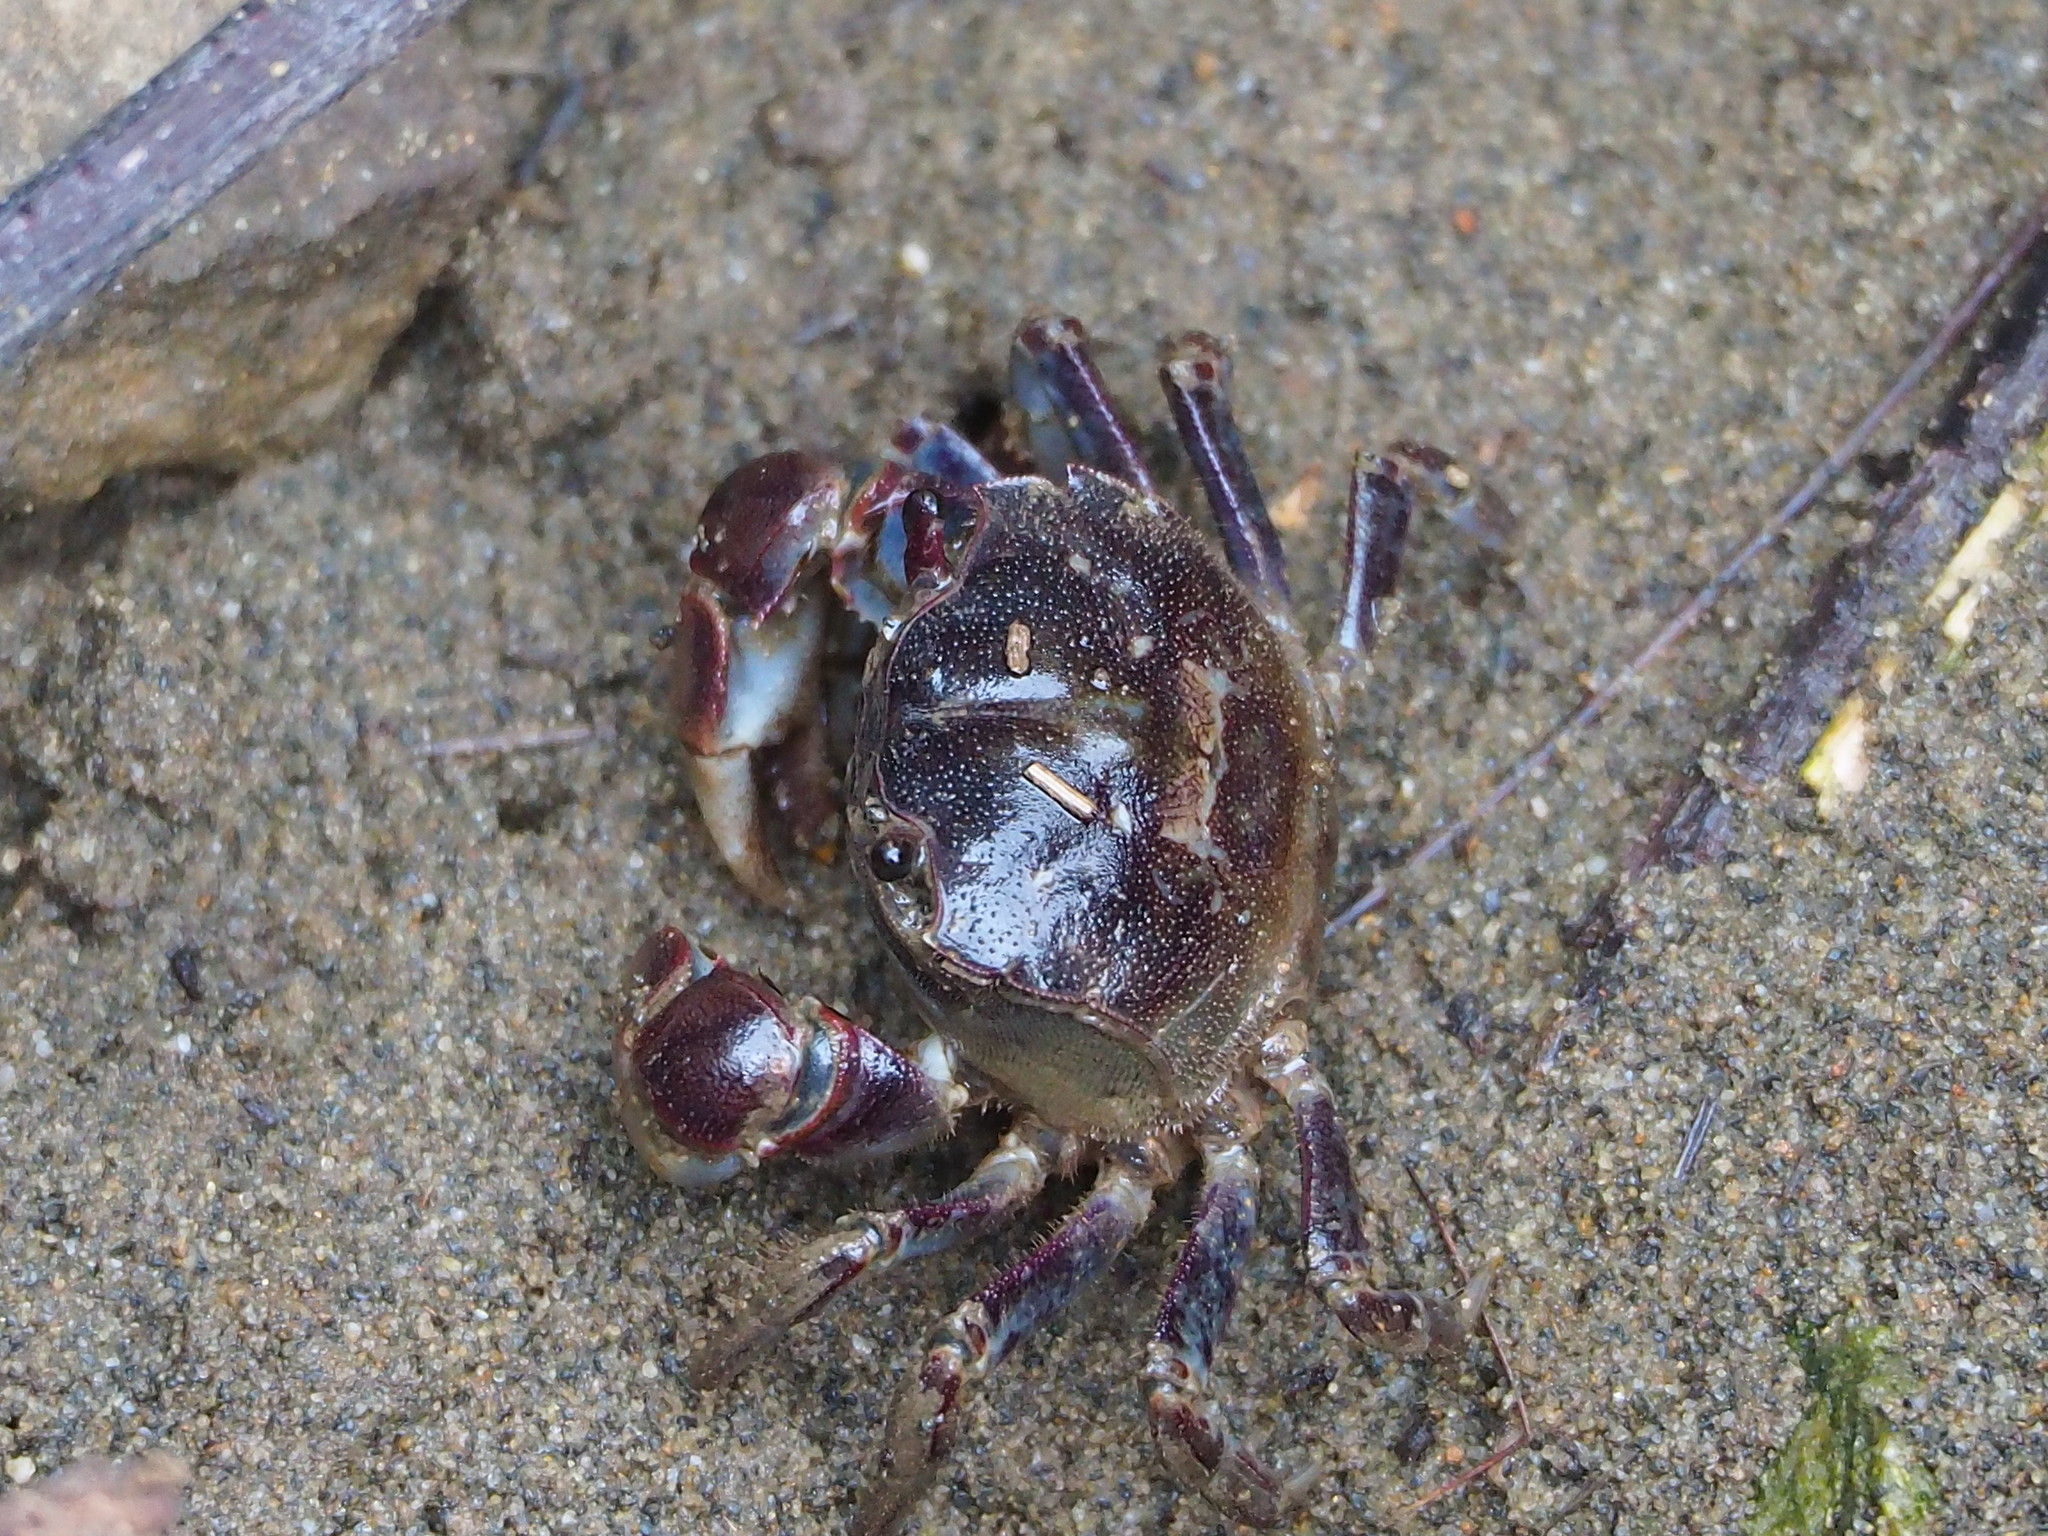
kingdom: Animalia
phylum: Arthropoda
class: Malacostraca
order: Decapoda
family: Varunidae
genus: Pseudohelice
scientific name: Pseudohelice subquadrata
